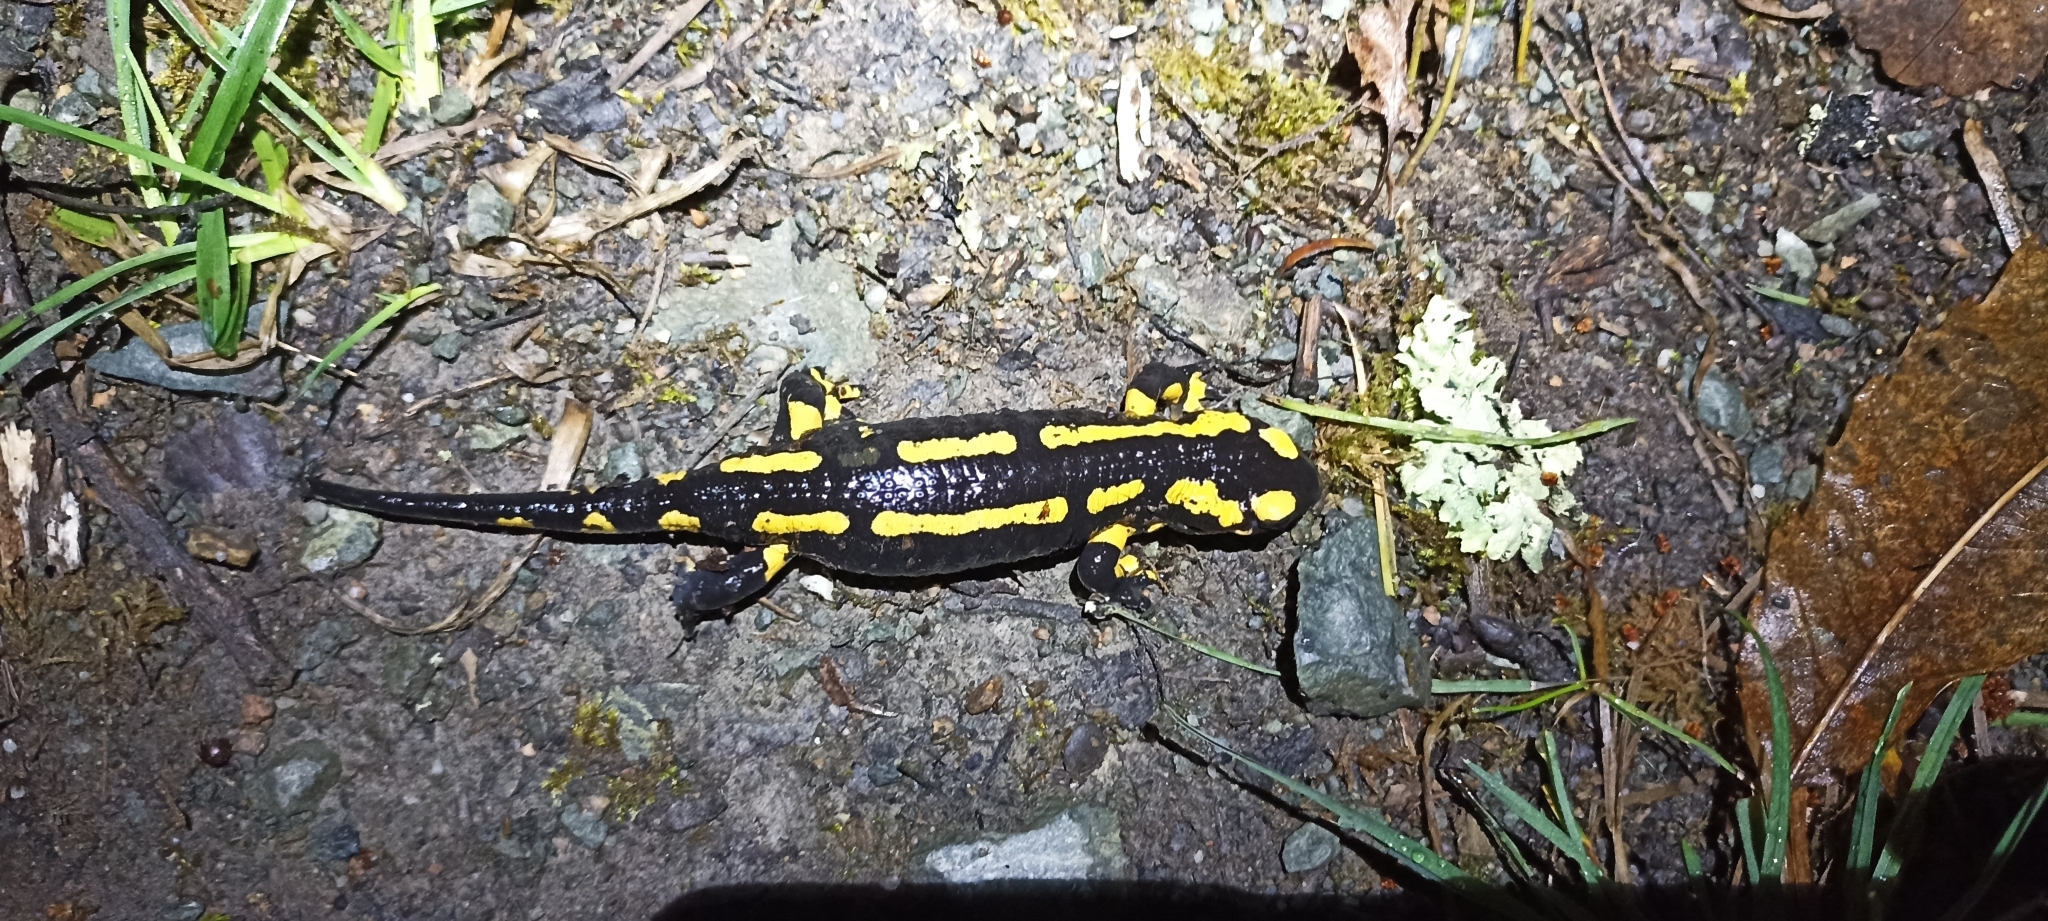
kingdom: Animalia
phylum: Chordata
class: Amphibia
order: Caudata
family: Salamandridae
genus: Salamandra
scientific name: Salamandra salamandra
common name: Fire salamander
